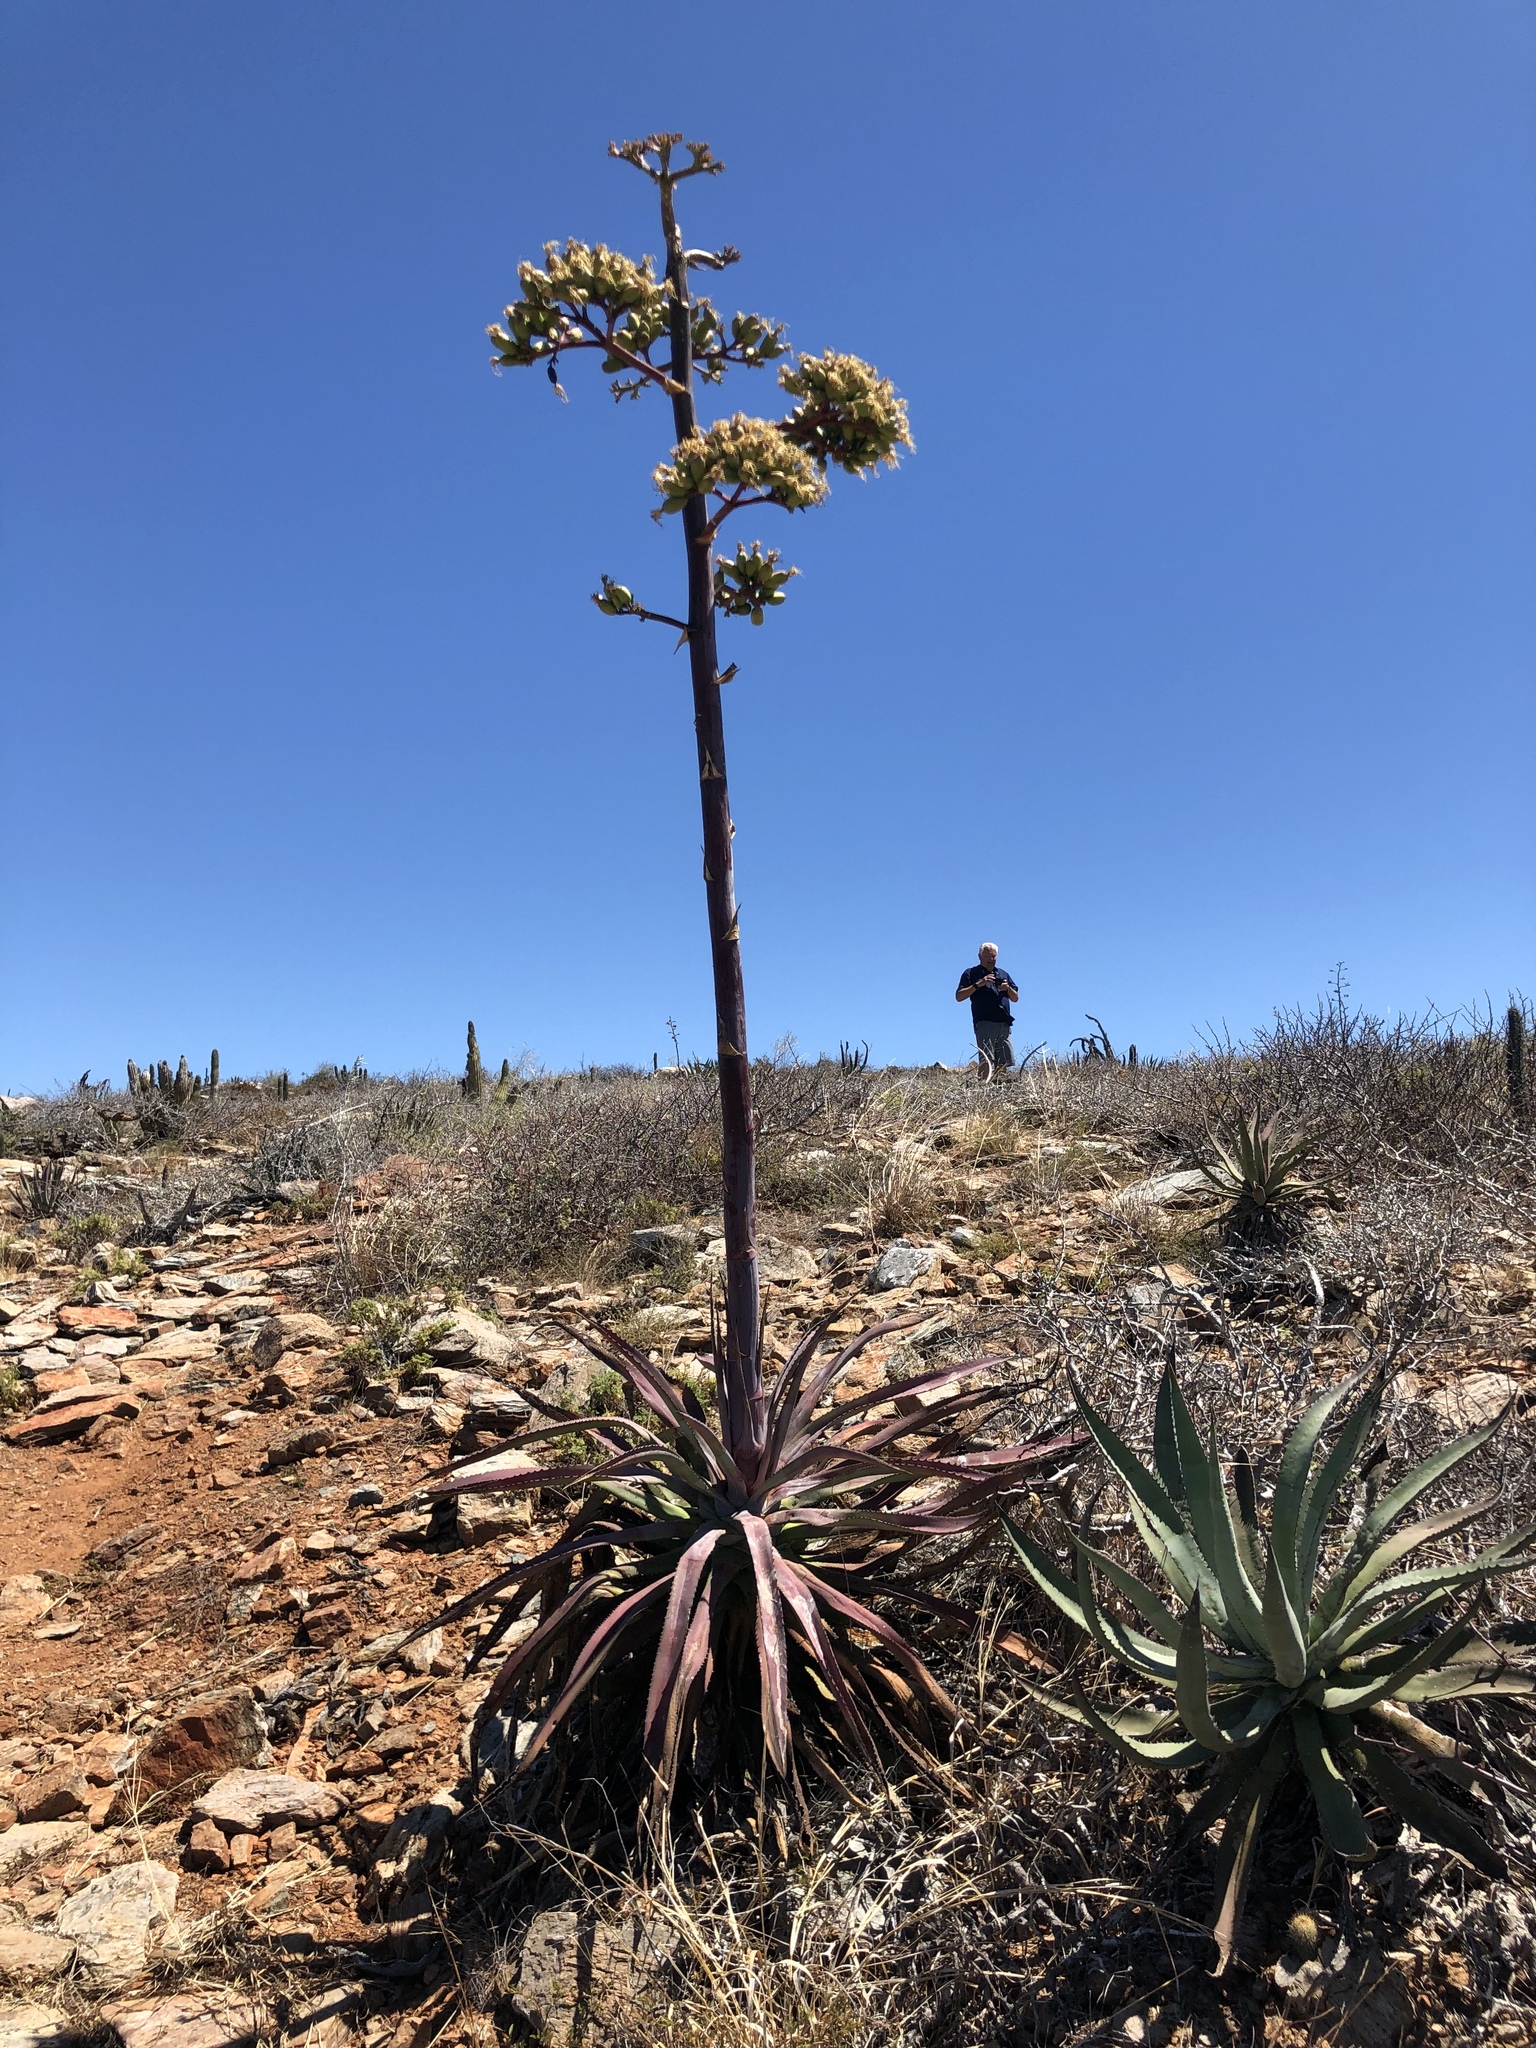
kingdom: Plantae
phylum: Tracheophyta
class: Liliopsida
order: Asparagales
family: Asparagaceae
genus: Agave
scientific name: Agave aurea
